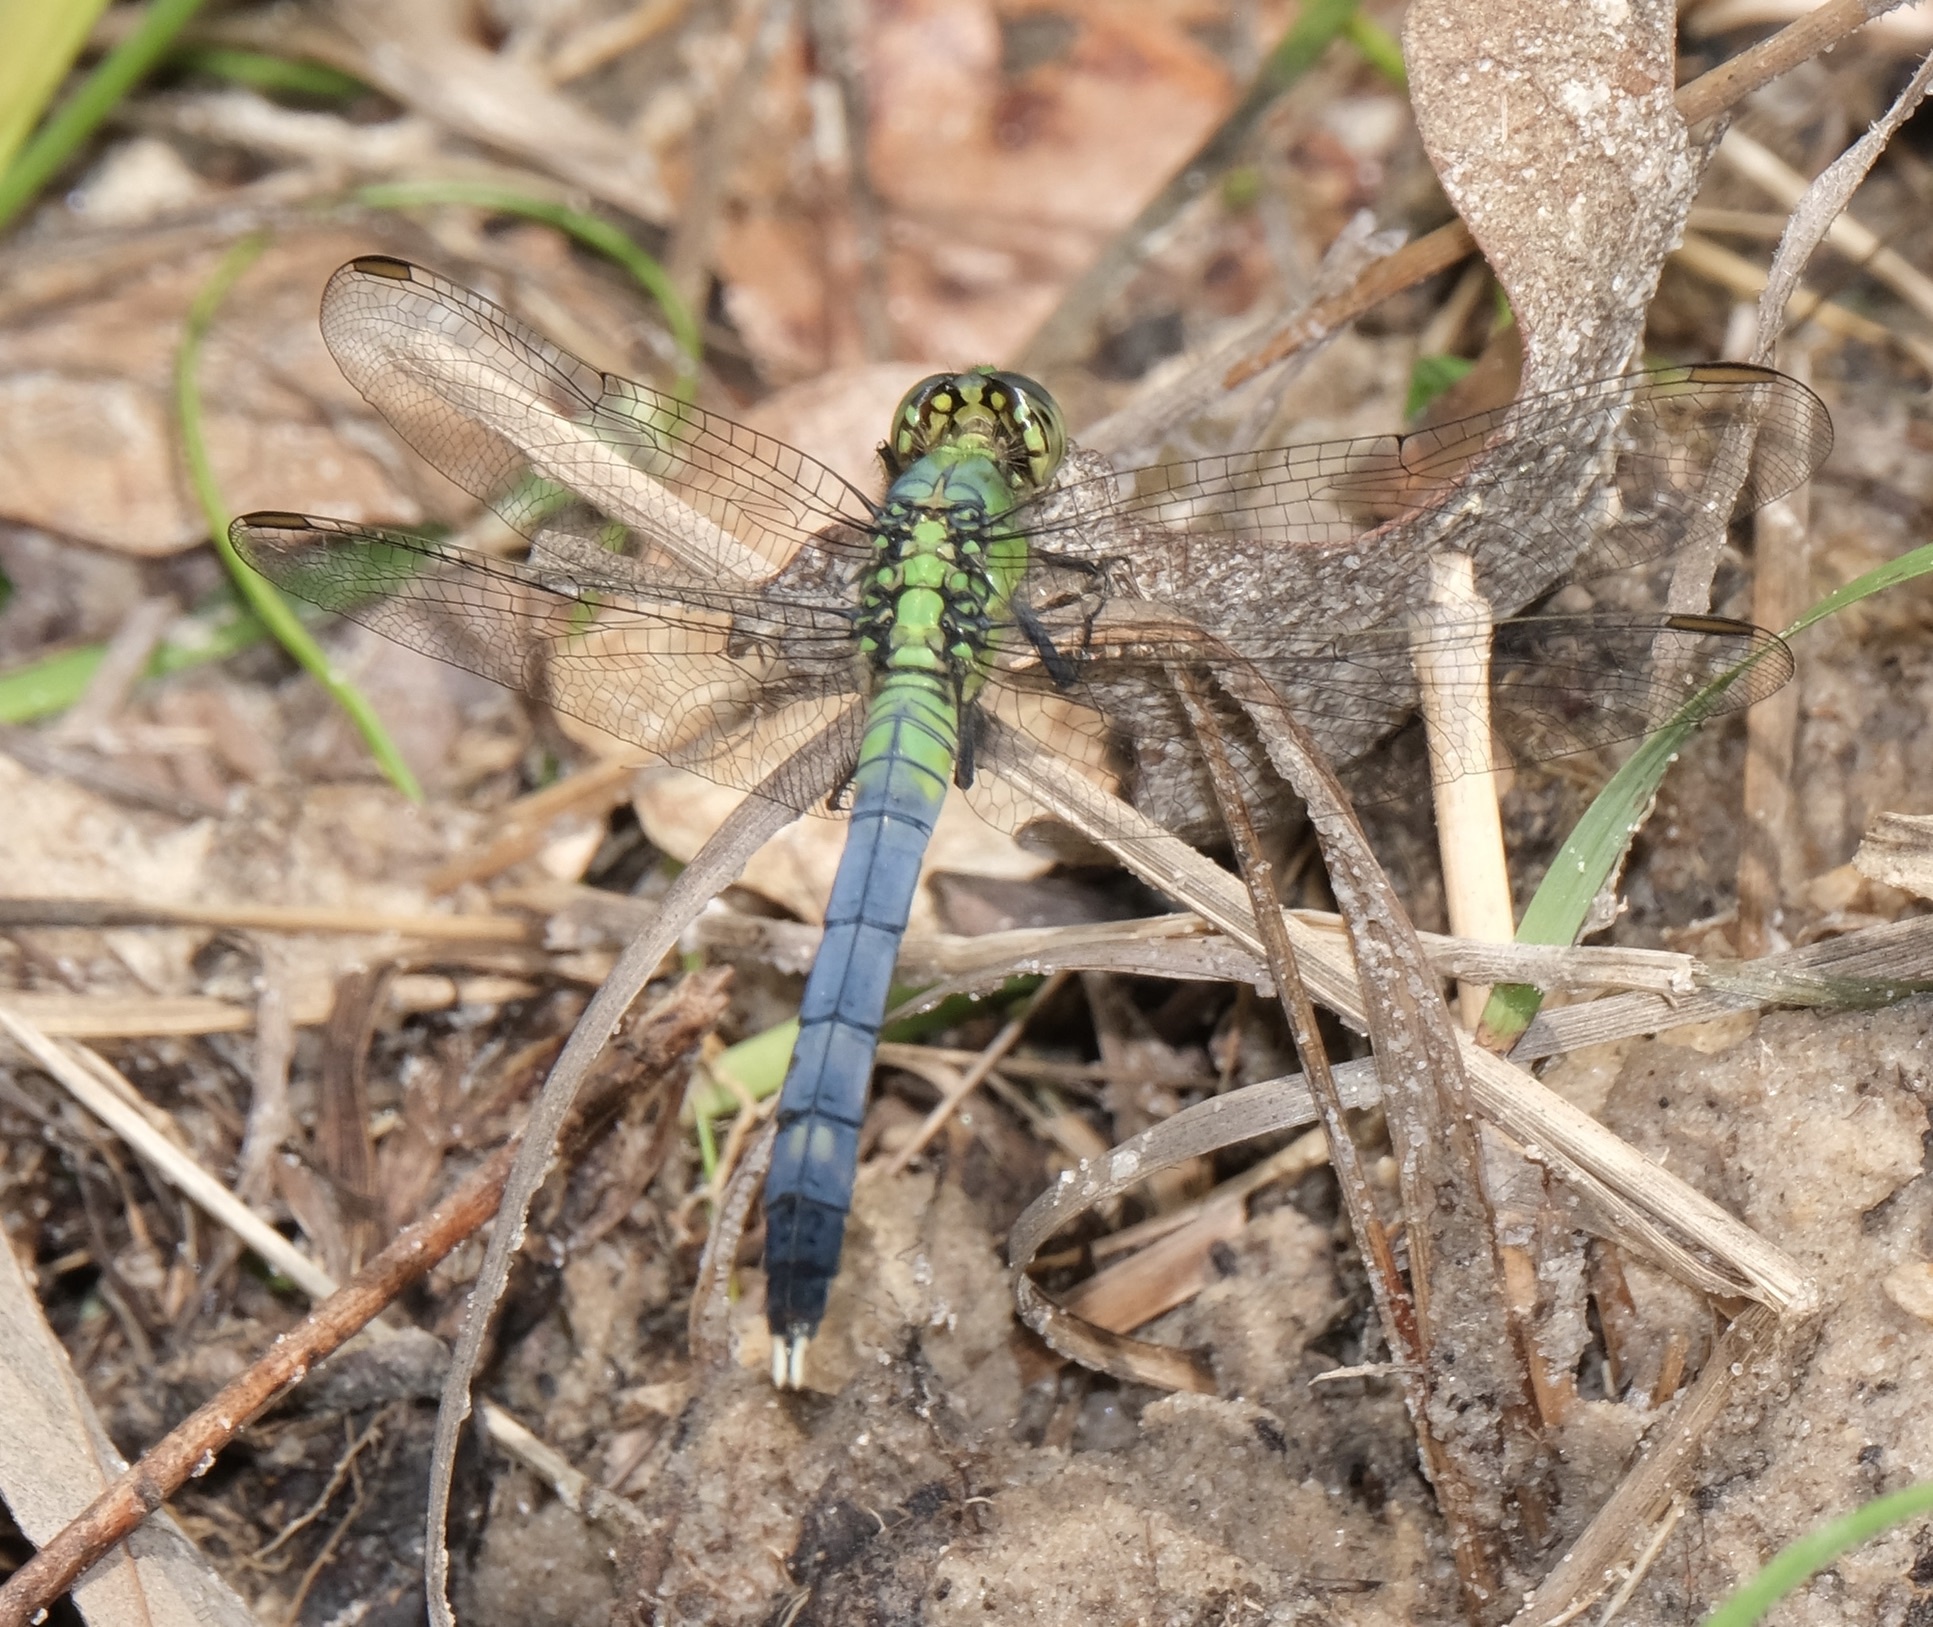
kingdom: Animalia
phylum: Arthropoda
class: Insecta
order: Odonata
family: Libellulidae
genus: Erythemis
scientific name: Erythemis simplicicollis
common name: Eastern pondhawk
